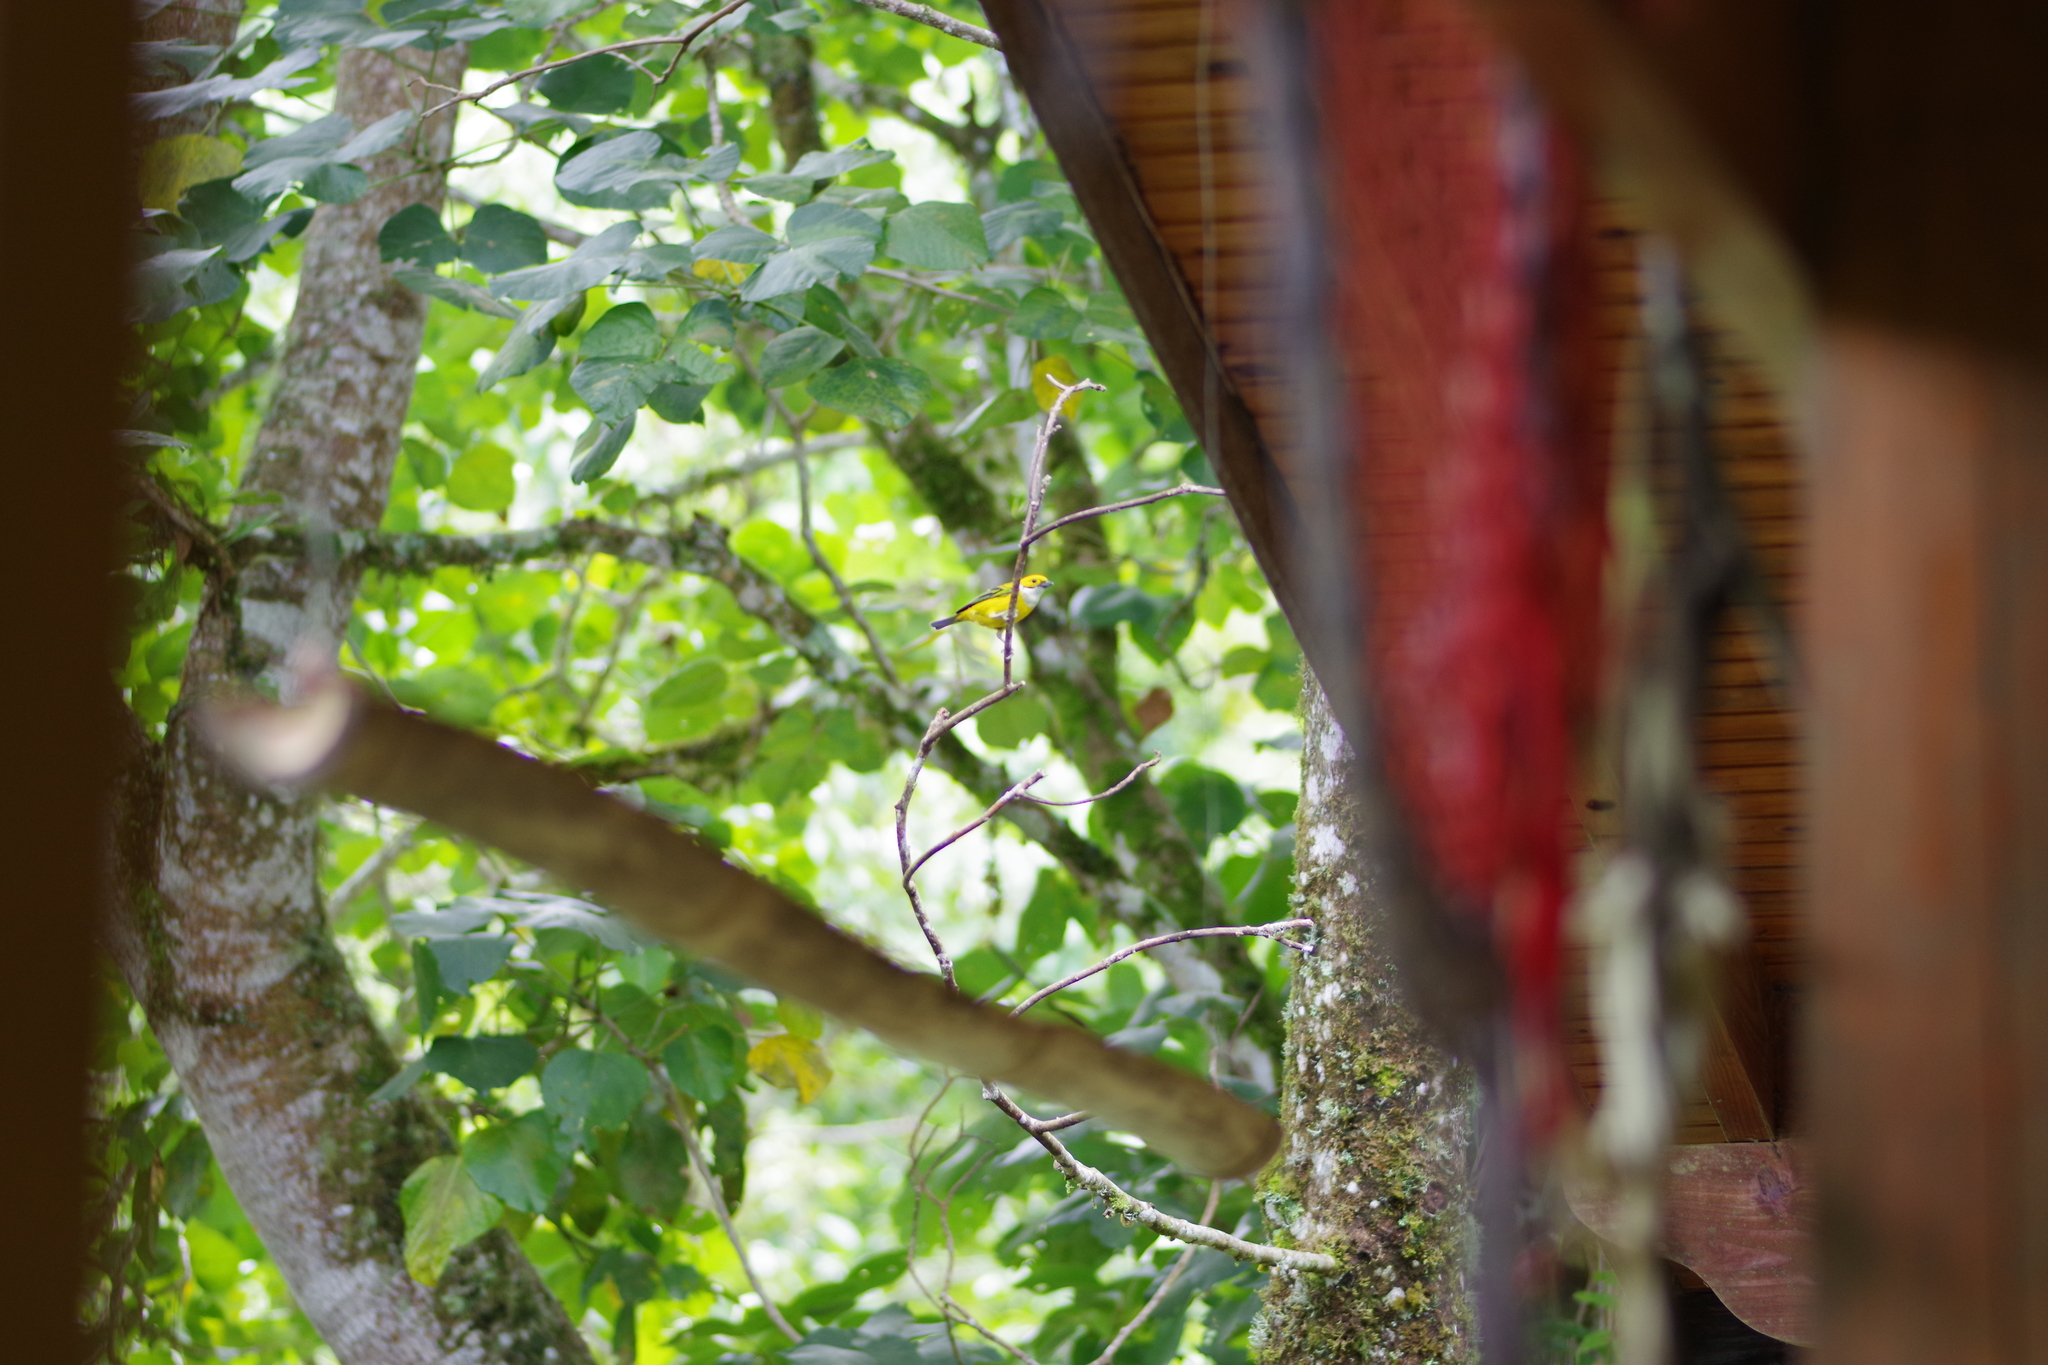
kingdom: Animalia
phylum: Chordata
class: Aves
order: Passeriformes
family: Thraupidae
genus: Tangara
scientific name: Tangara icterocephala
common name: Silver-throated tanager
